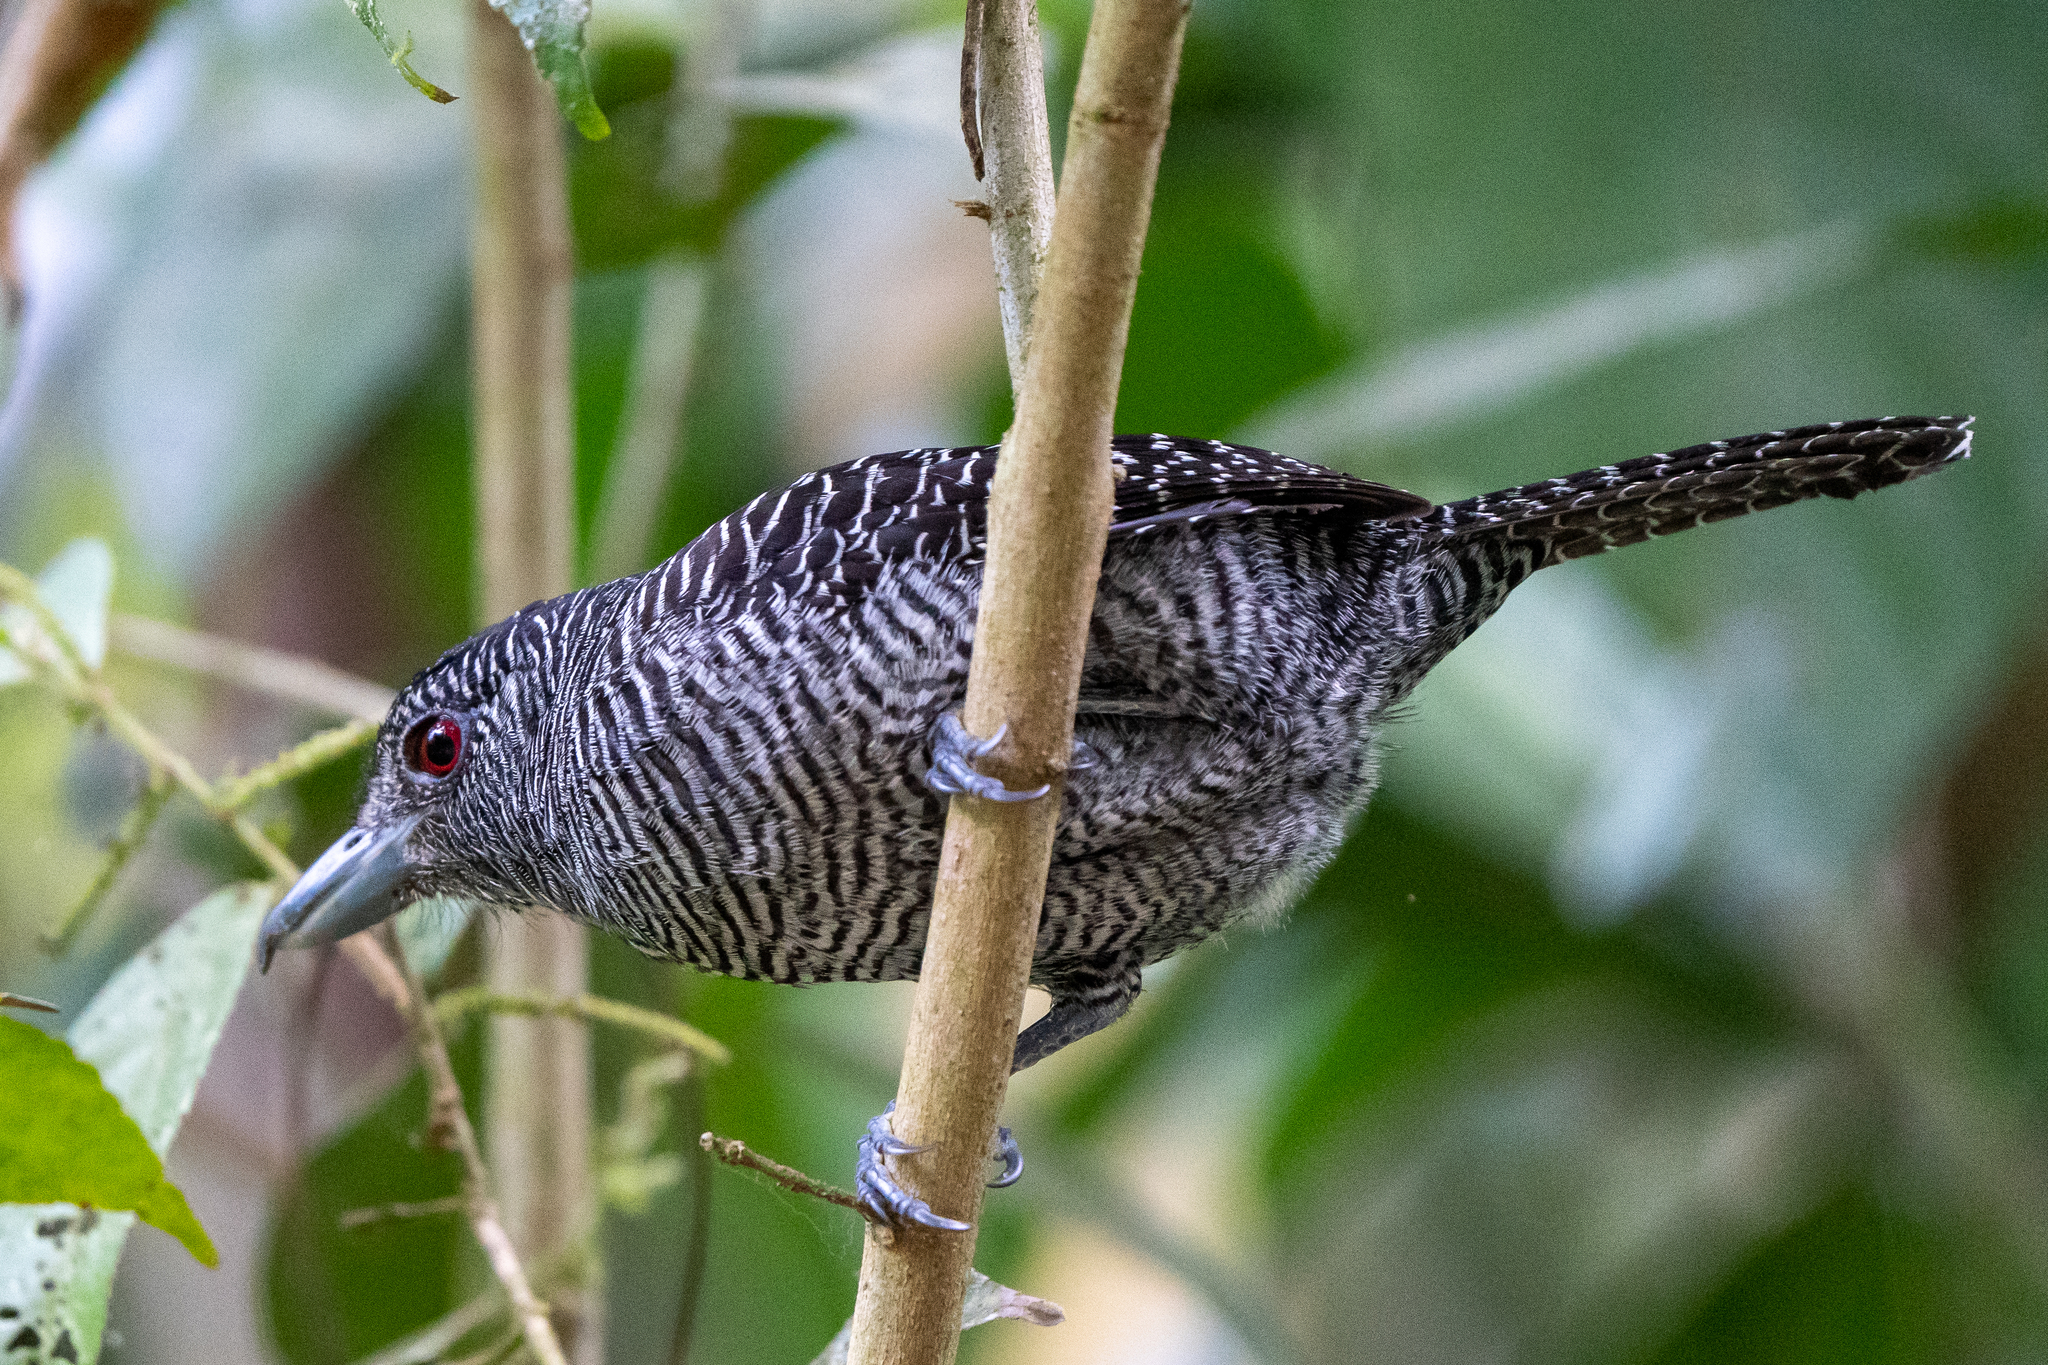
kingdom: Animalia
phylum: Chordata
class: Aves
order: Passeriformes
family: Thamnophilidae
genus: Cymbilaimus
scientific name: Cymbilaimus lineatus
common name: Fasciated antshrike
